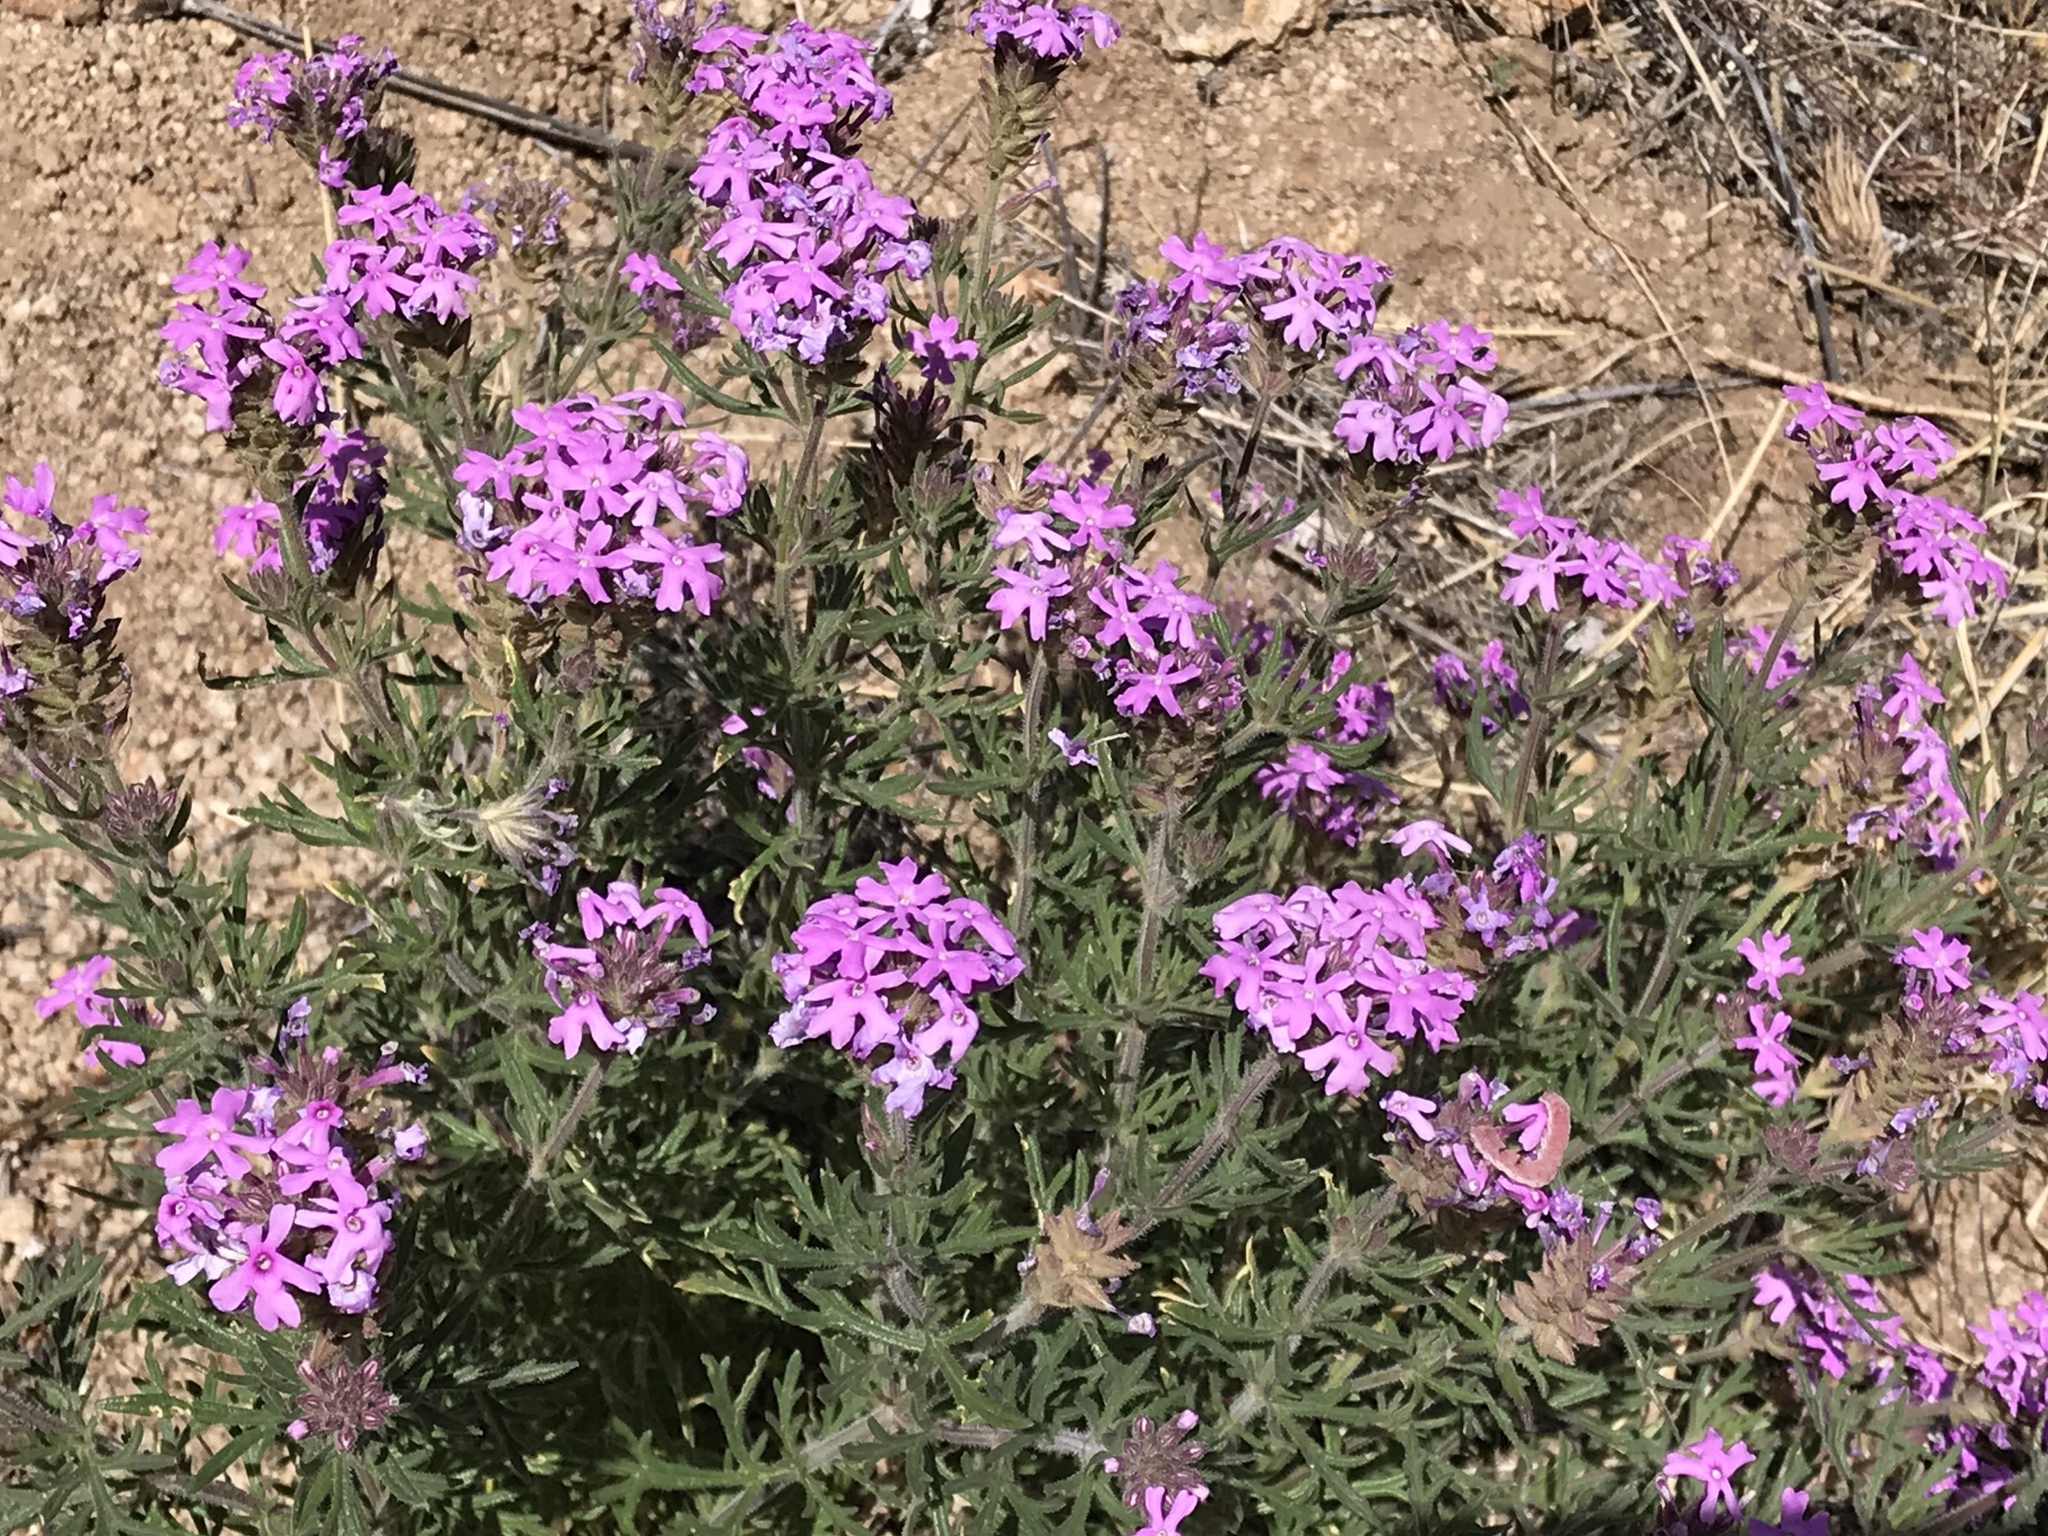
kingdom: Plantae
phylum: Tracheophyta
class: Magnoliopsida
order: Lamiales
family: Verbenaceae
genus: Verbena
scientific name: Verbena bipinnatifida
